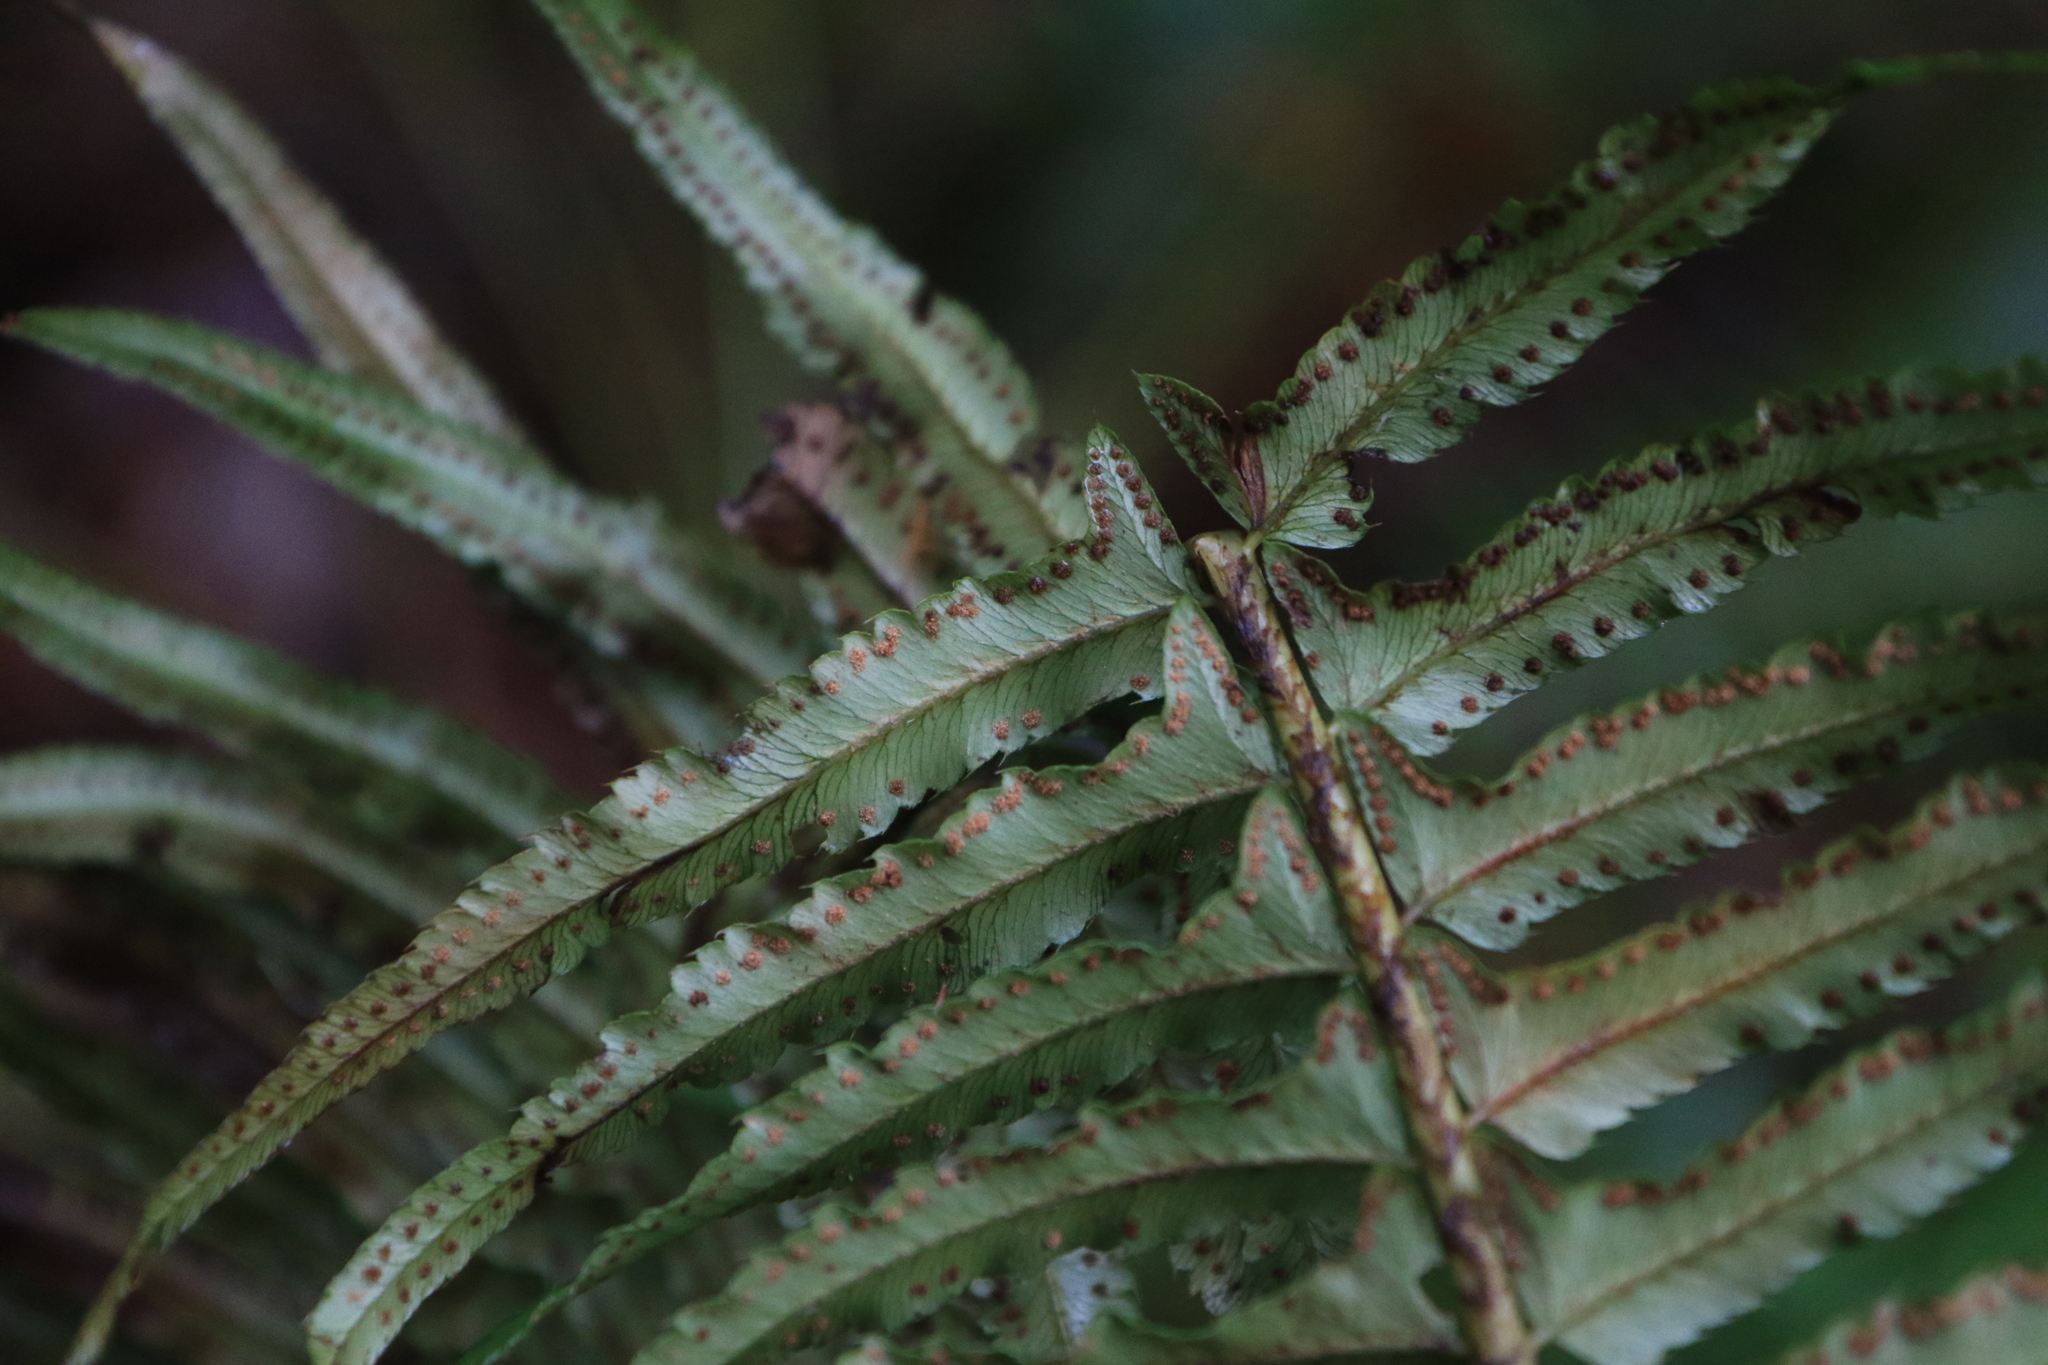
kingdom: Plantae
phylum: Tracheophyta
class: Polypodiopsida
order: Polypodiales
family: Dryopteridaceae
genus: Polystichum
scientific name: Polystichum munitum
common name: Western sword-fern
